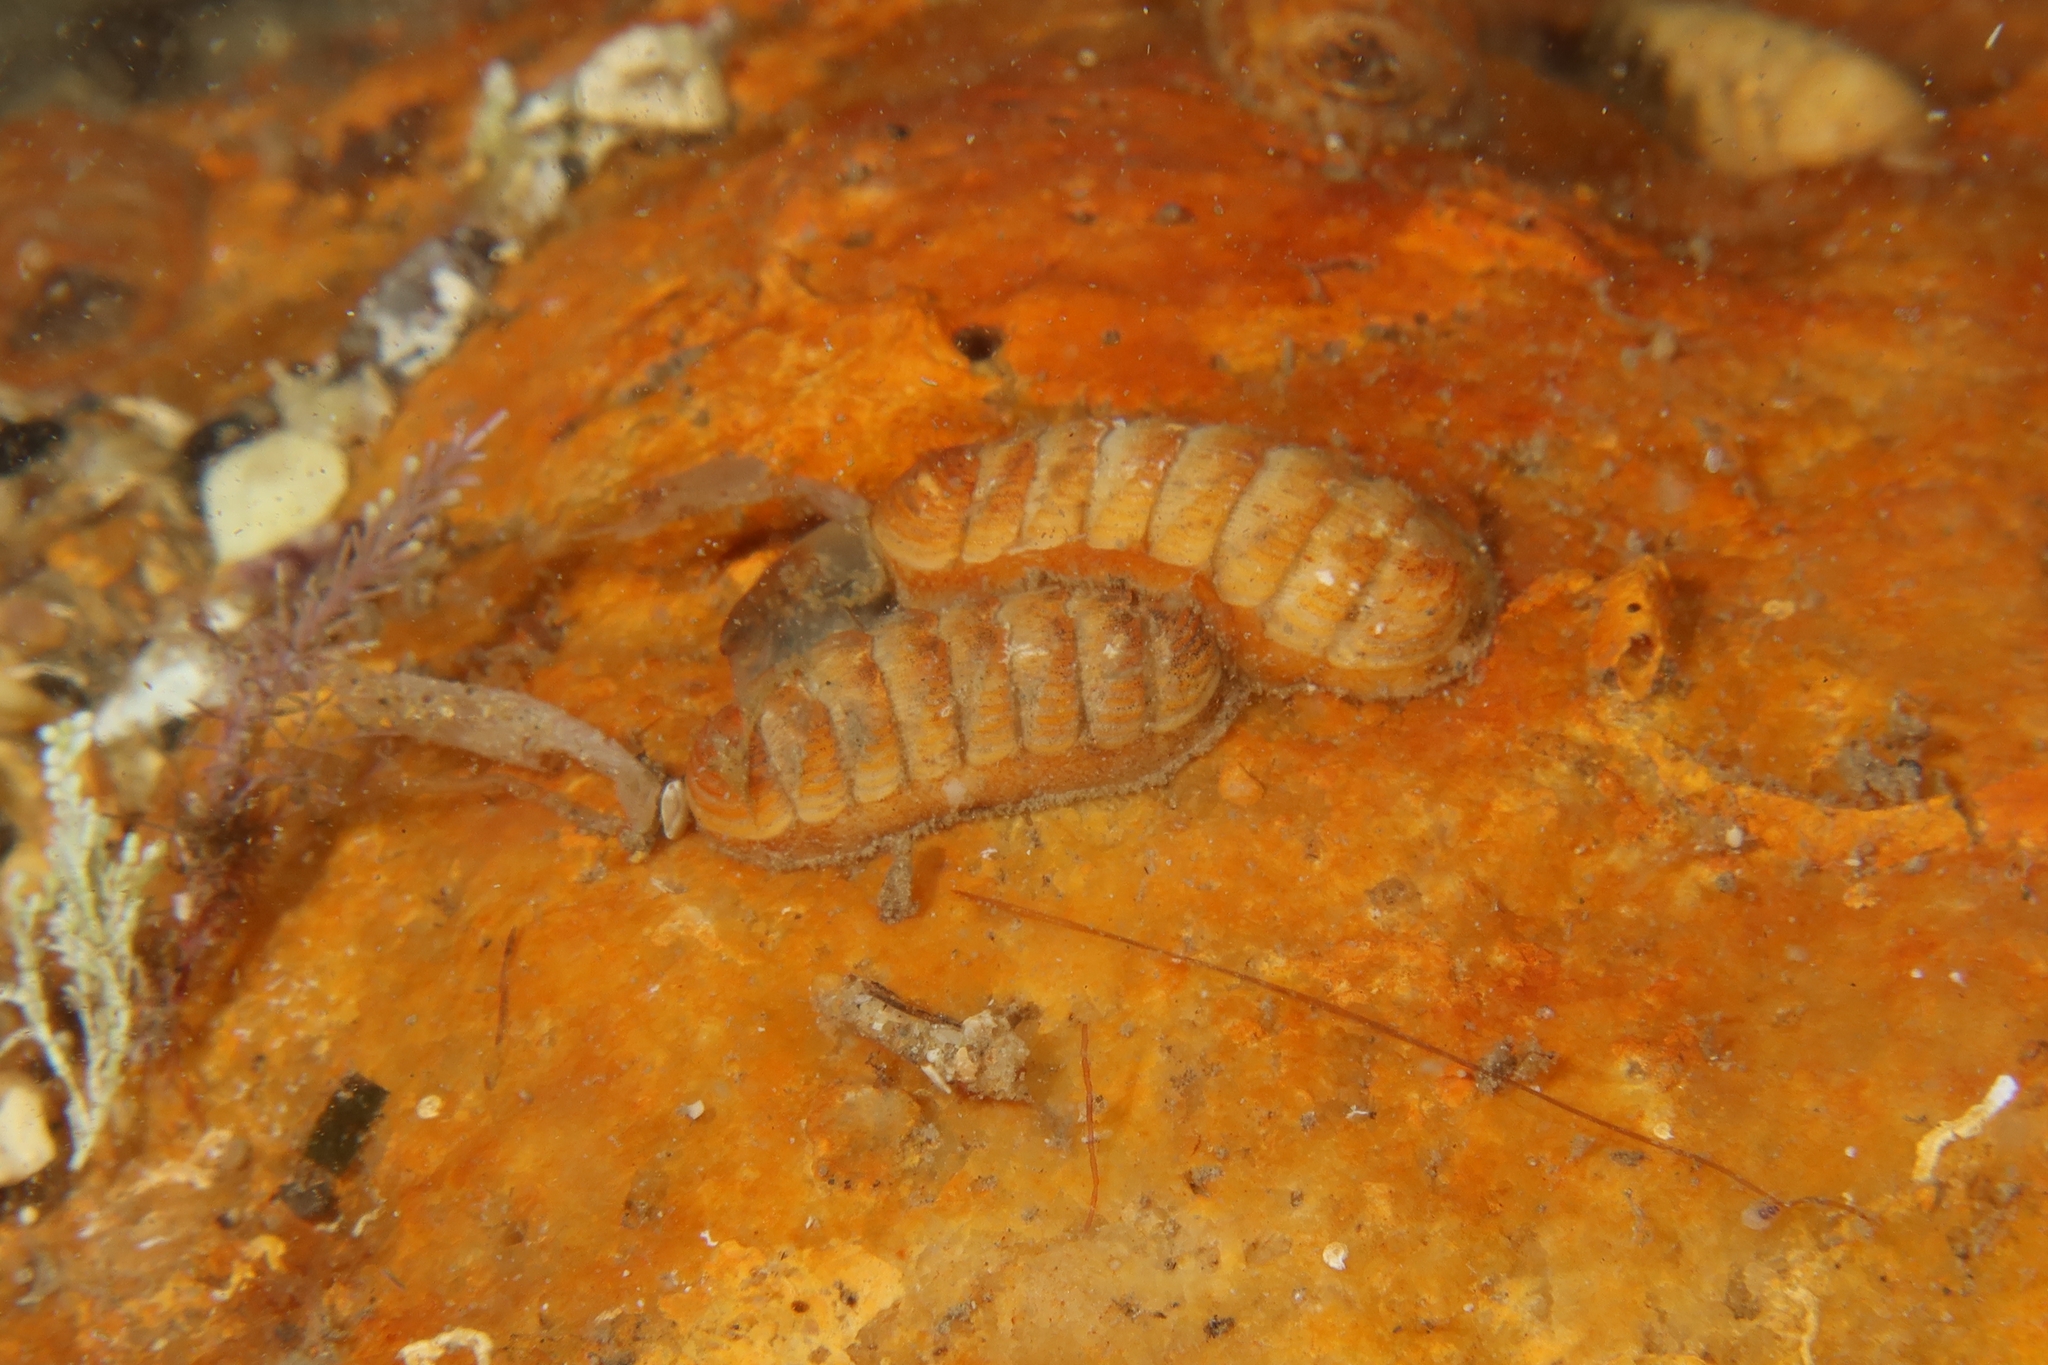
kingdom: Animalia
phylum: Mollusca
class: Polyplacophora
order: Lepidopleurida
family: Leptochitonidae
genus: Lepidopleurus
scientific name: Lepidopleurus cajetanus
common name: Ribbed chiton
